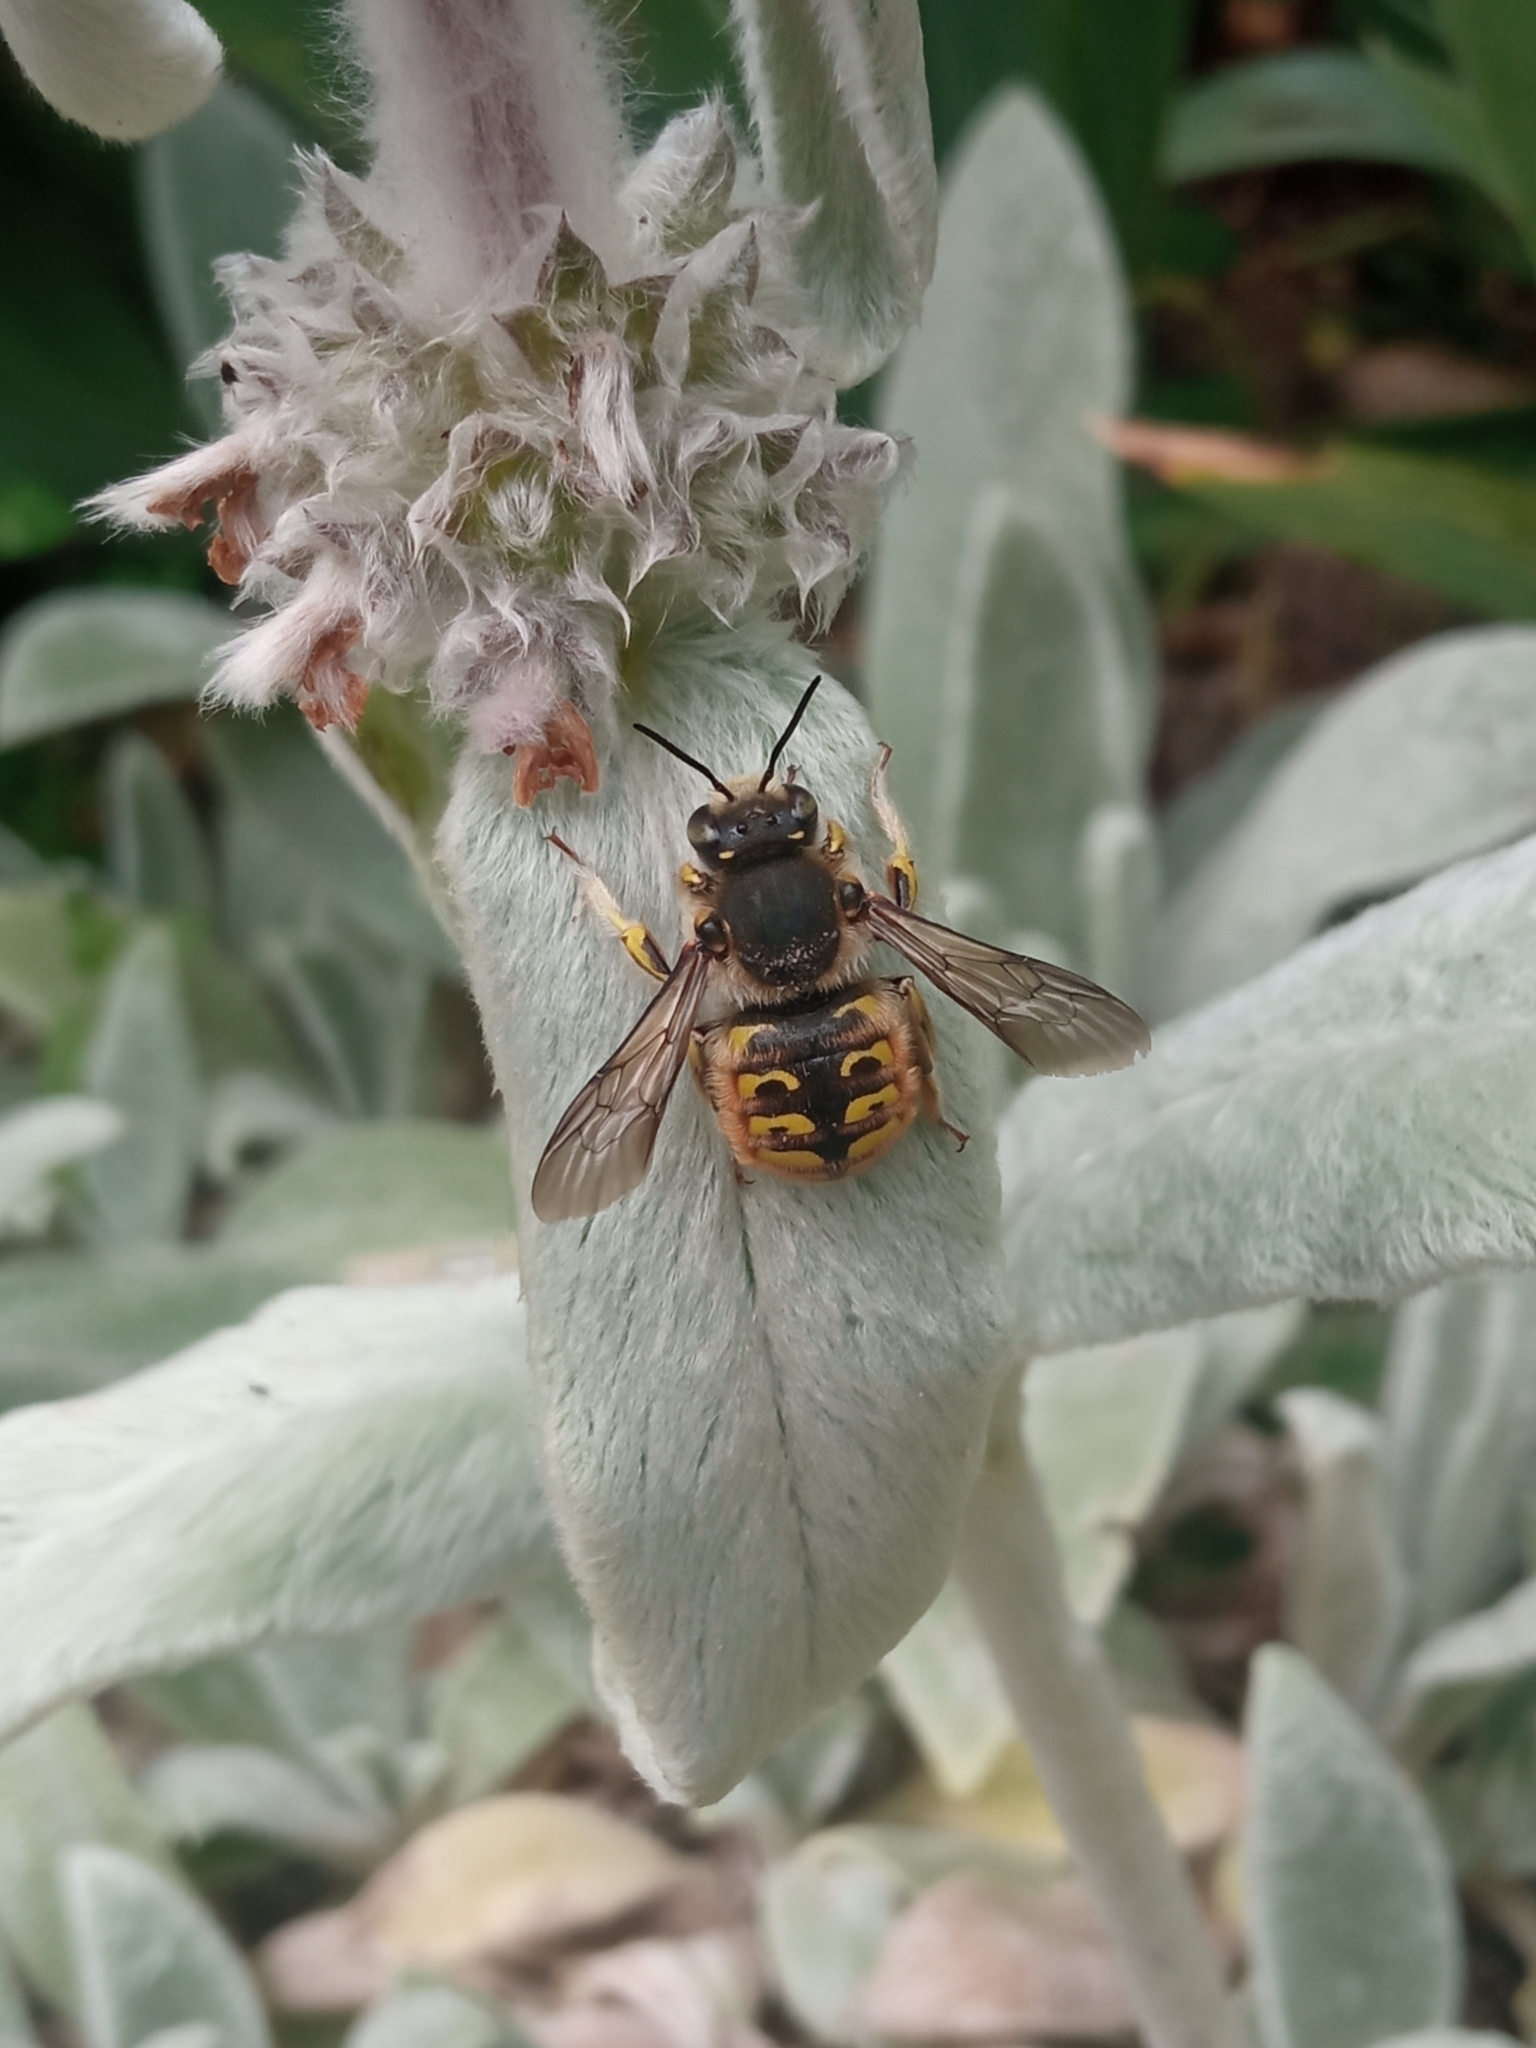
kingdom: Animalia
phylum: Arthropoda
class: Insecta
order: Hymenoptera
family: Megachilidae
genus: Anthidium
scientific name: Anthidium manicatum
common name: Wool carder bee
